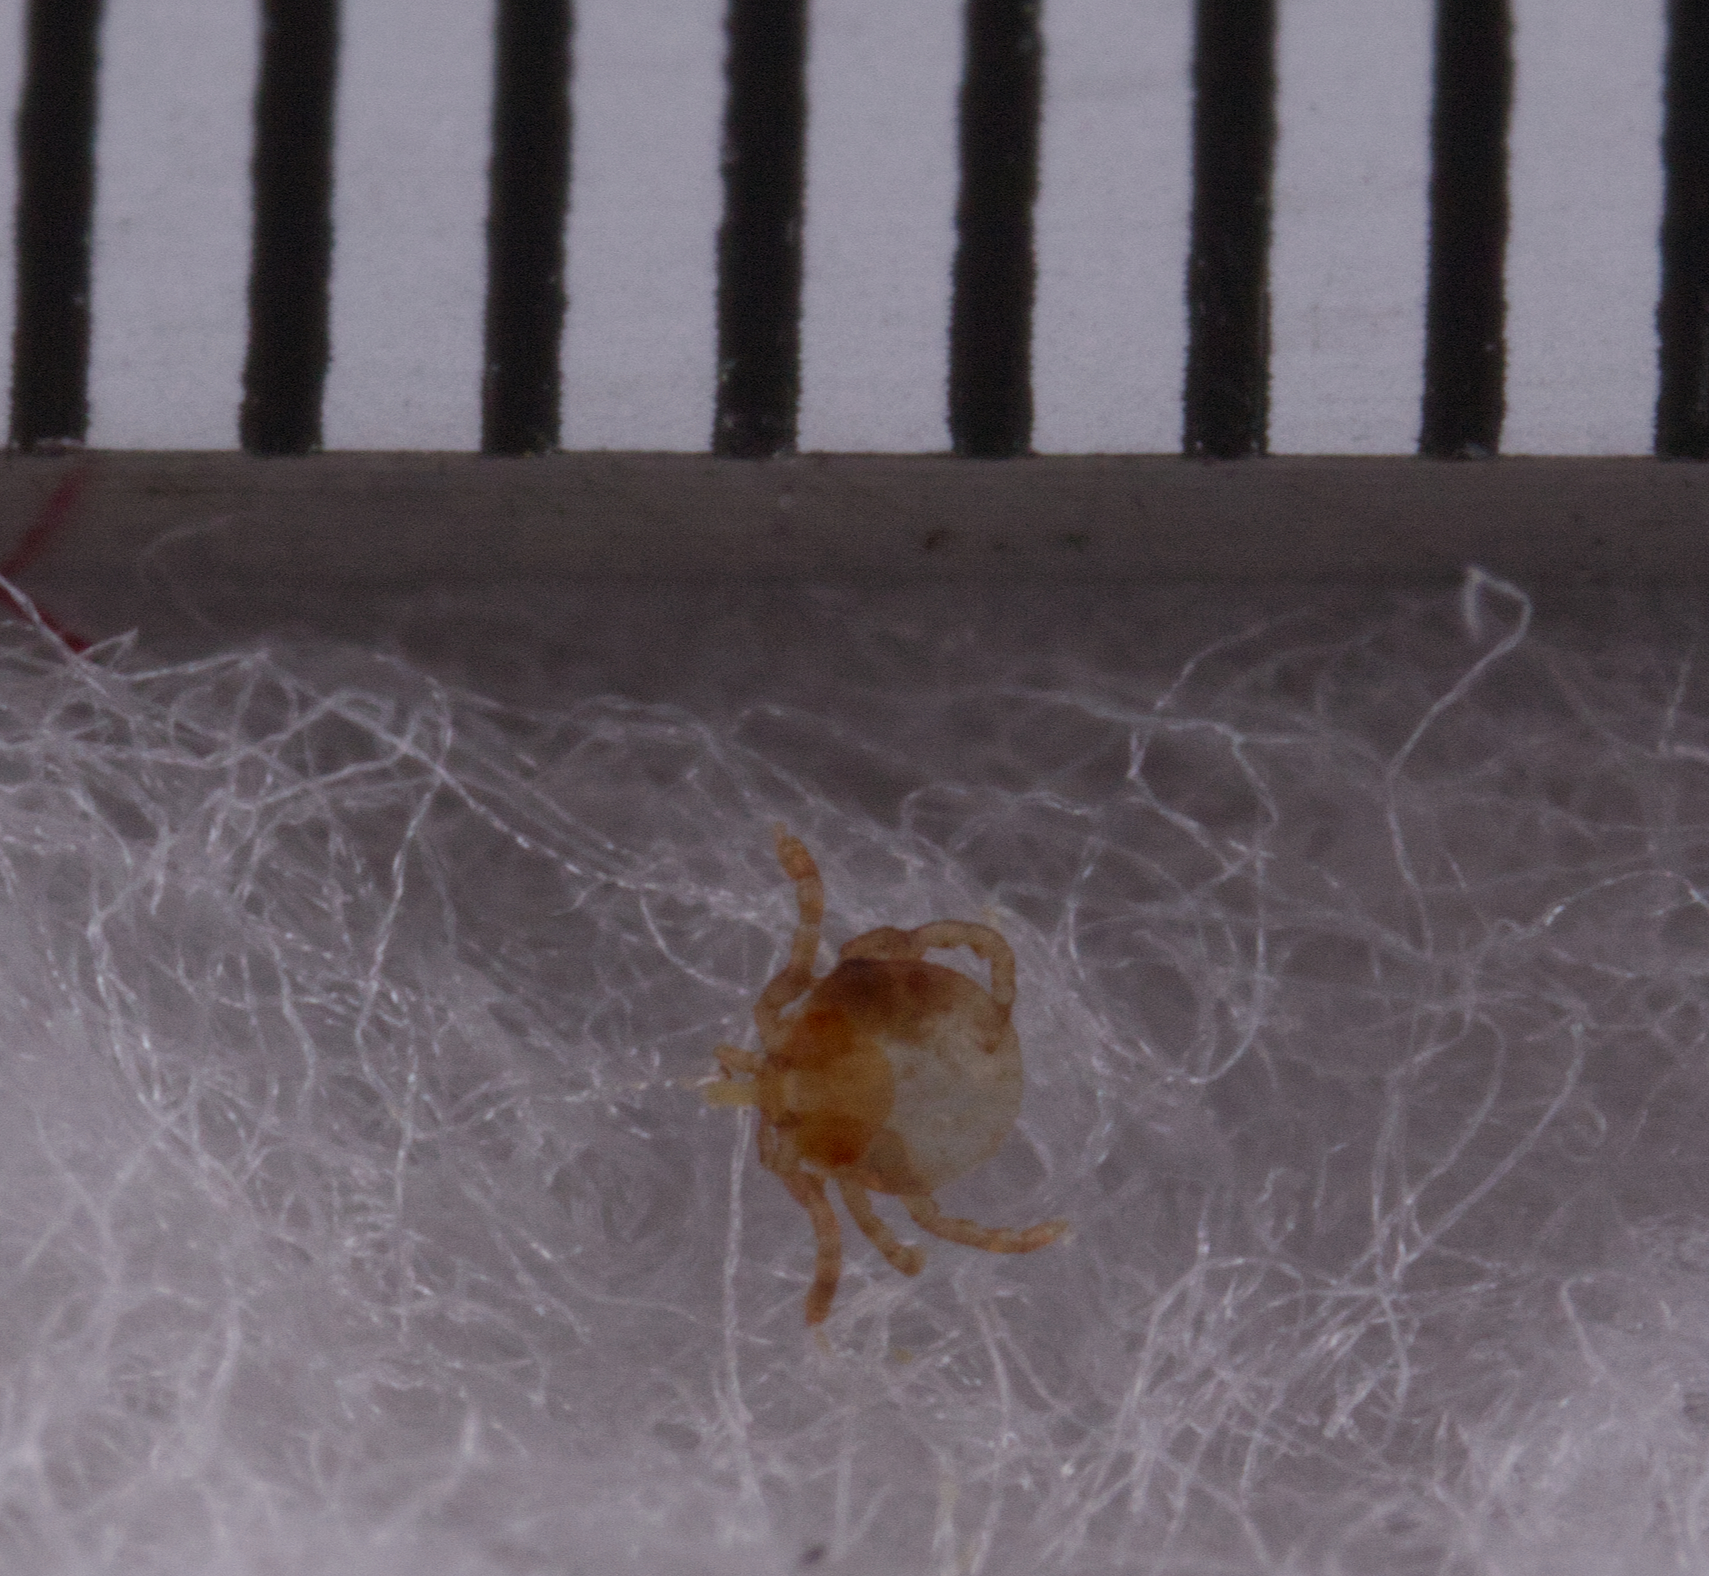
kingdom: Animalia
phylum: Arthropoda
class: Arachnida
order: Ixodida
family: Ixodidae
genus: Amblyomma
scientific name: Amblyomma americanum
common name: Lone star tick
